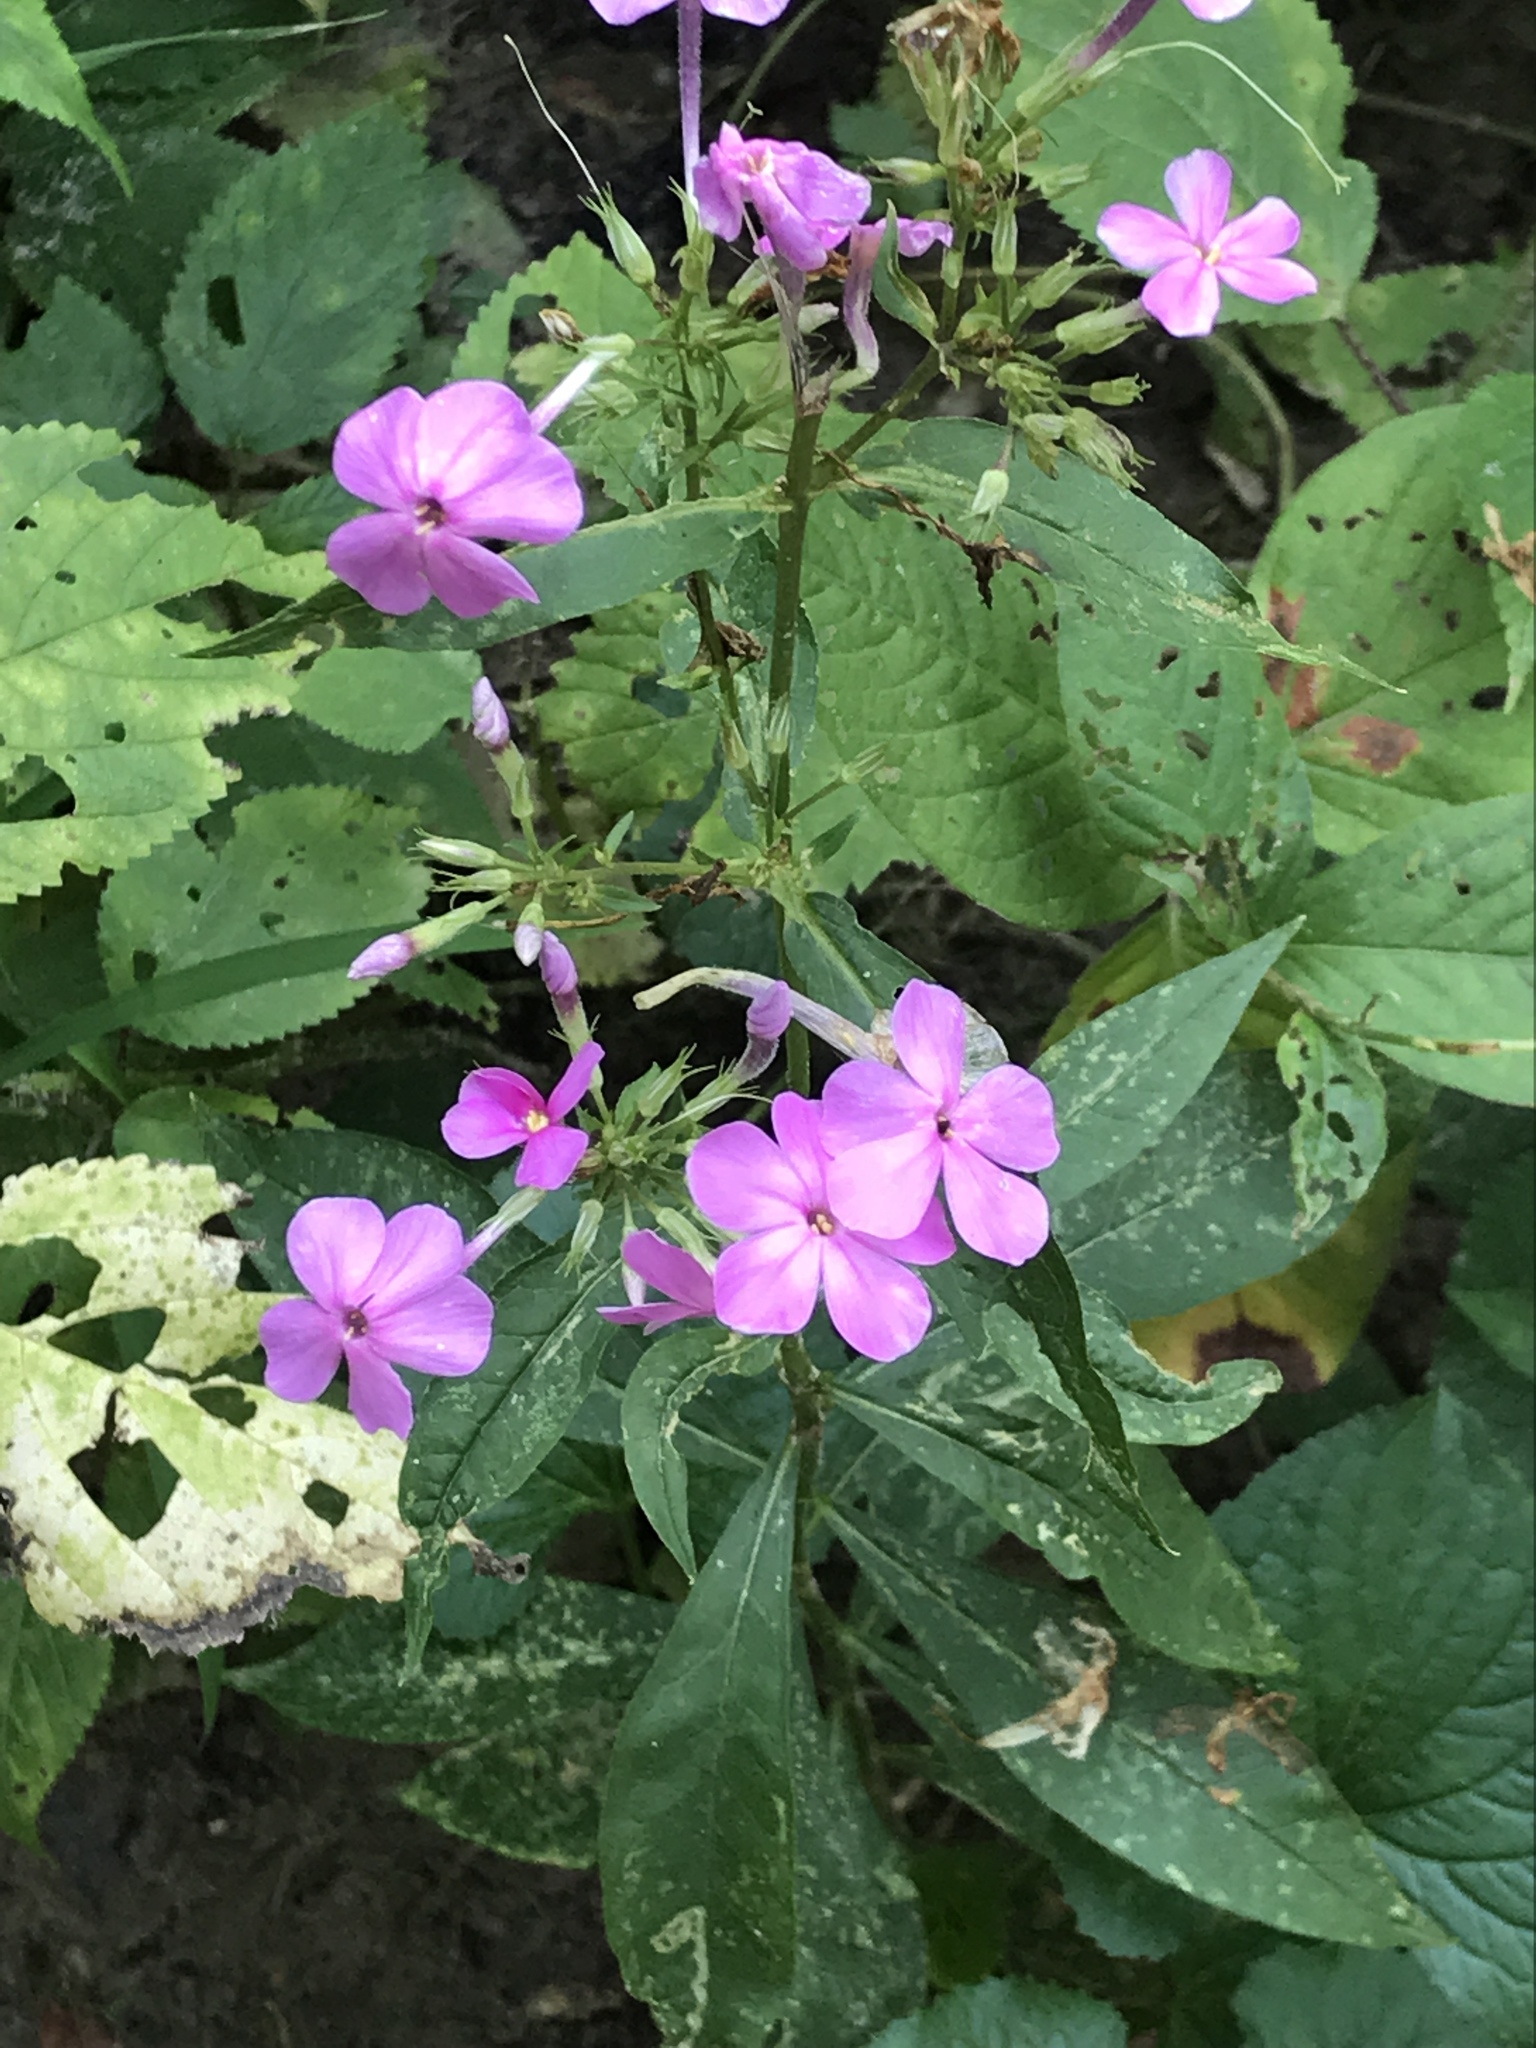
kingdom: Plantae
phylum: Tracheophyta
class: Magnoliopsida
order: Ericales
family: Polemoniaceae
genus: Phlox
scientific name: Phlox paniculata
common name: Fall phlox
